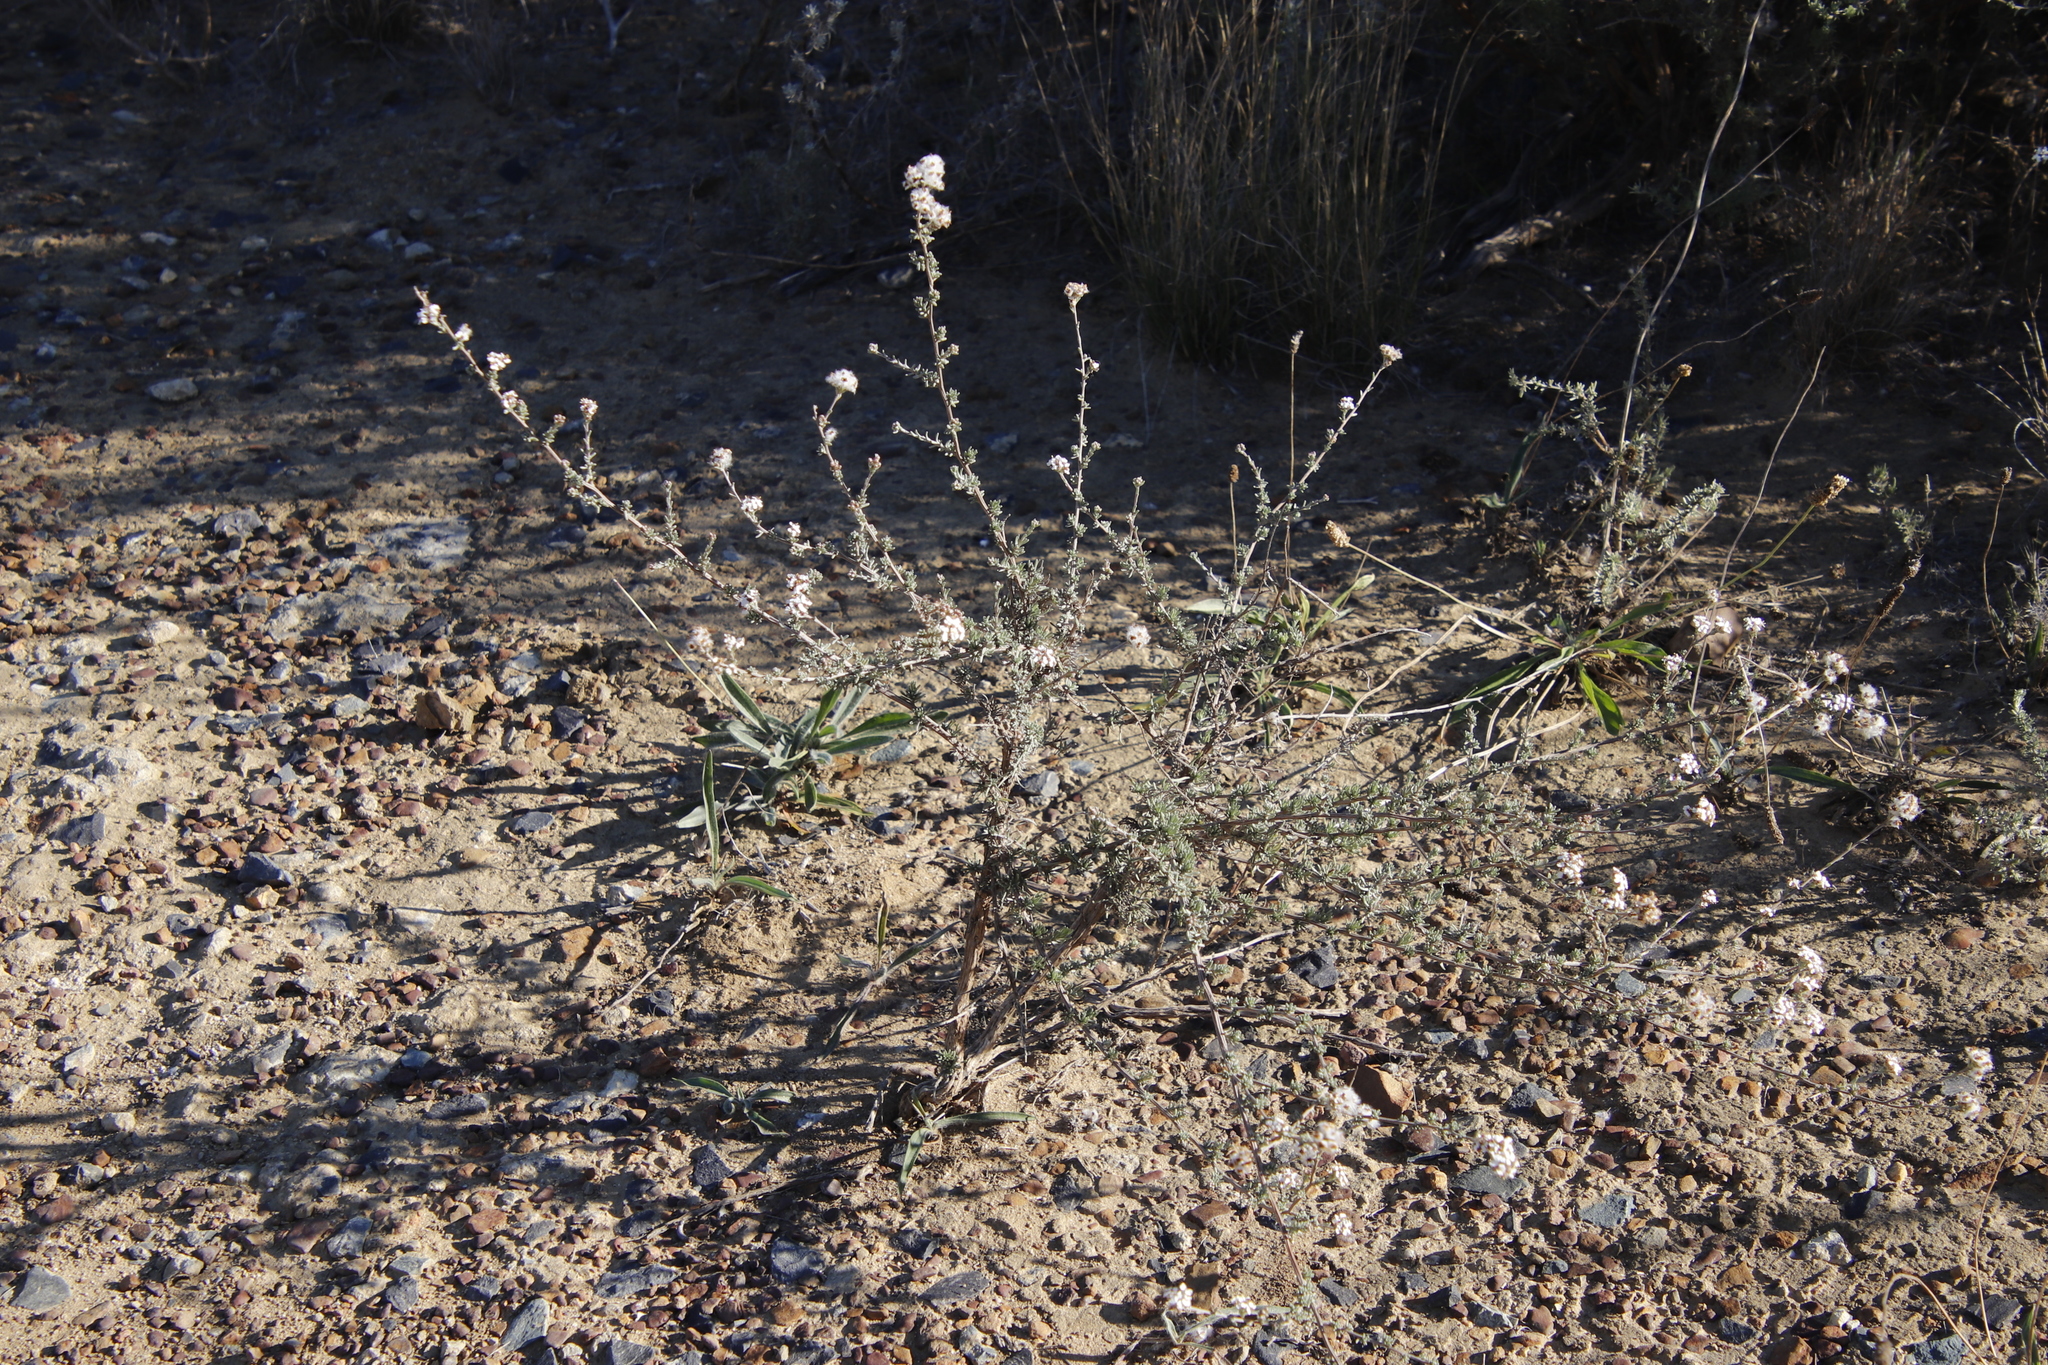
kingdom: Plantae
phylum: Tracheophyta
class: Magnoliopsida
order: Asterales
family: Asteraceae
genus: Eriocephalus
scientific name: Eriocephalus africanus
